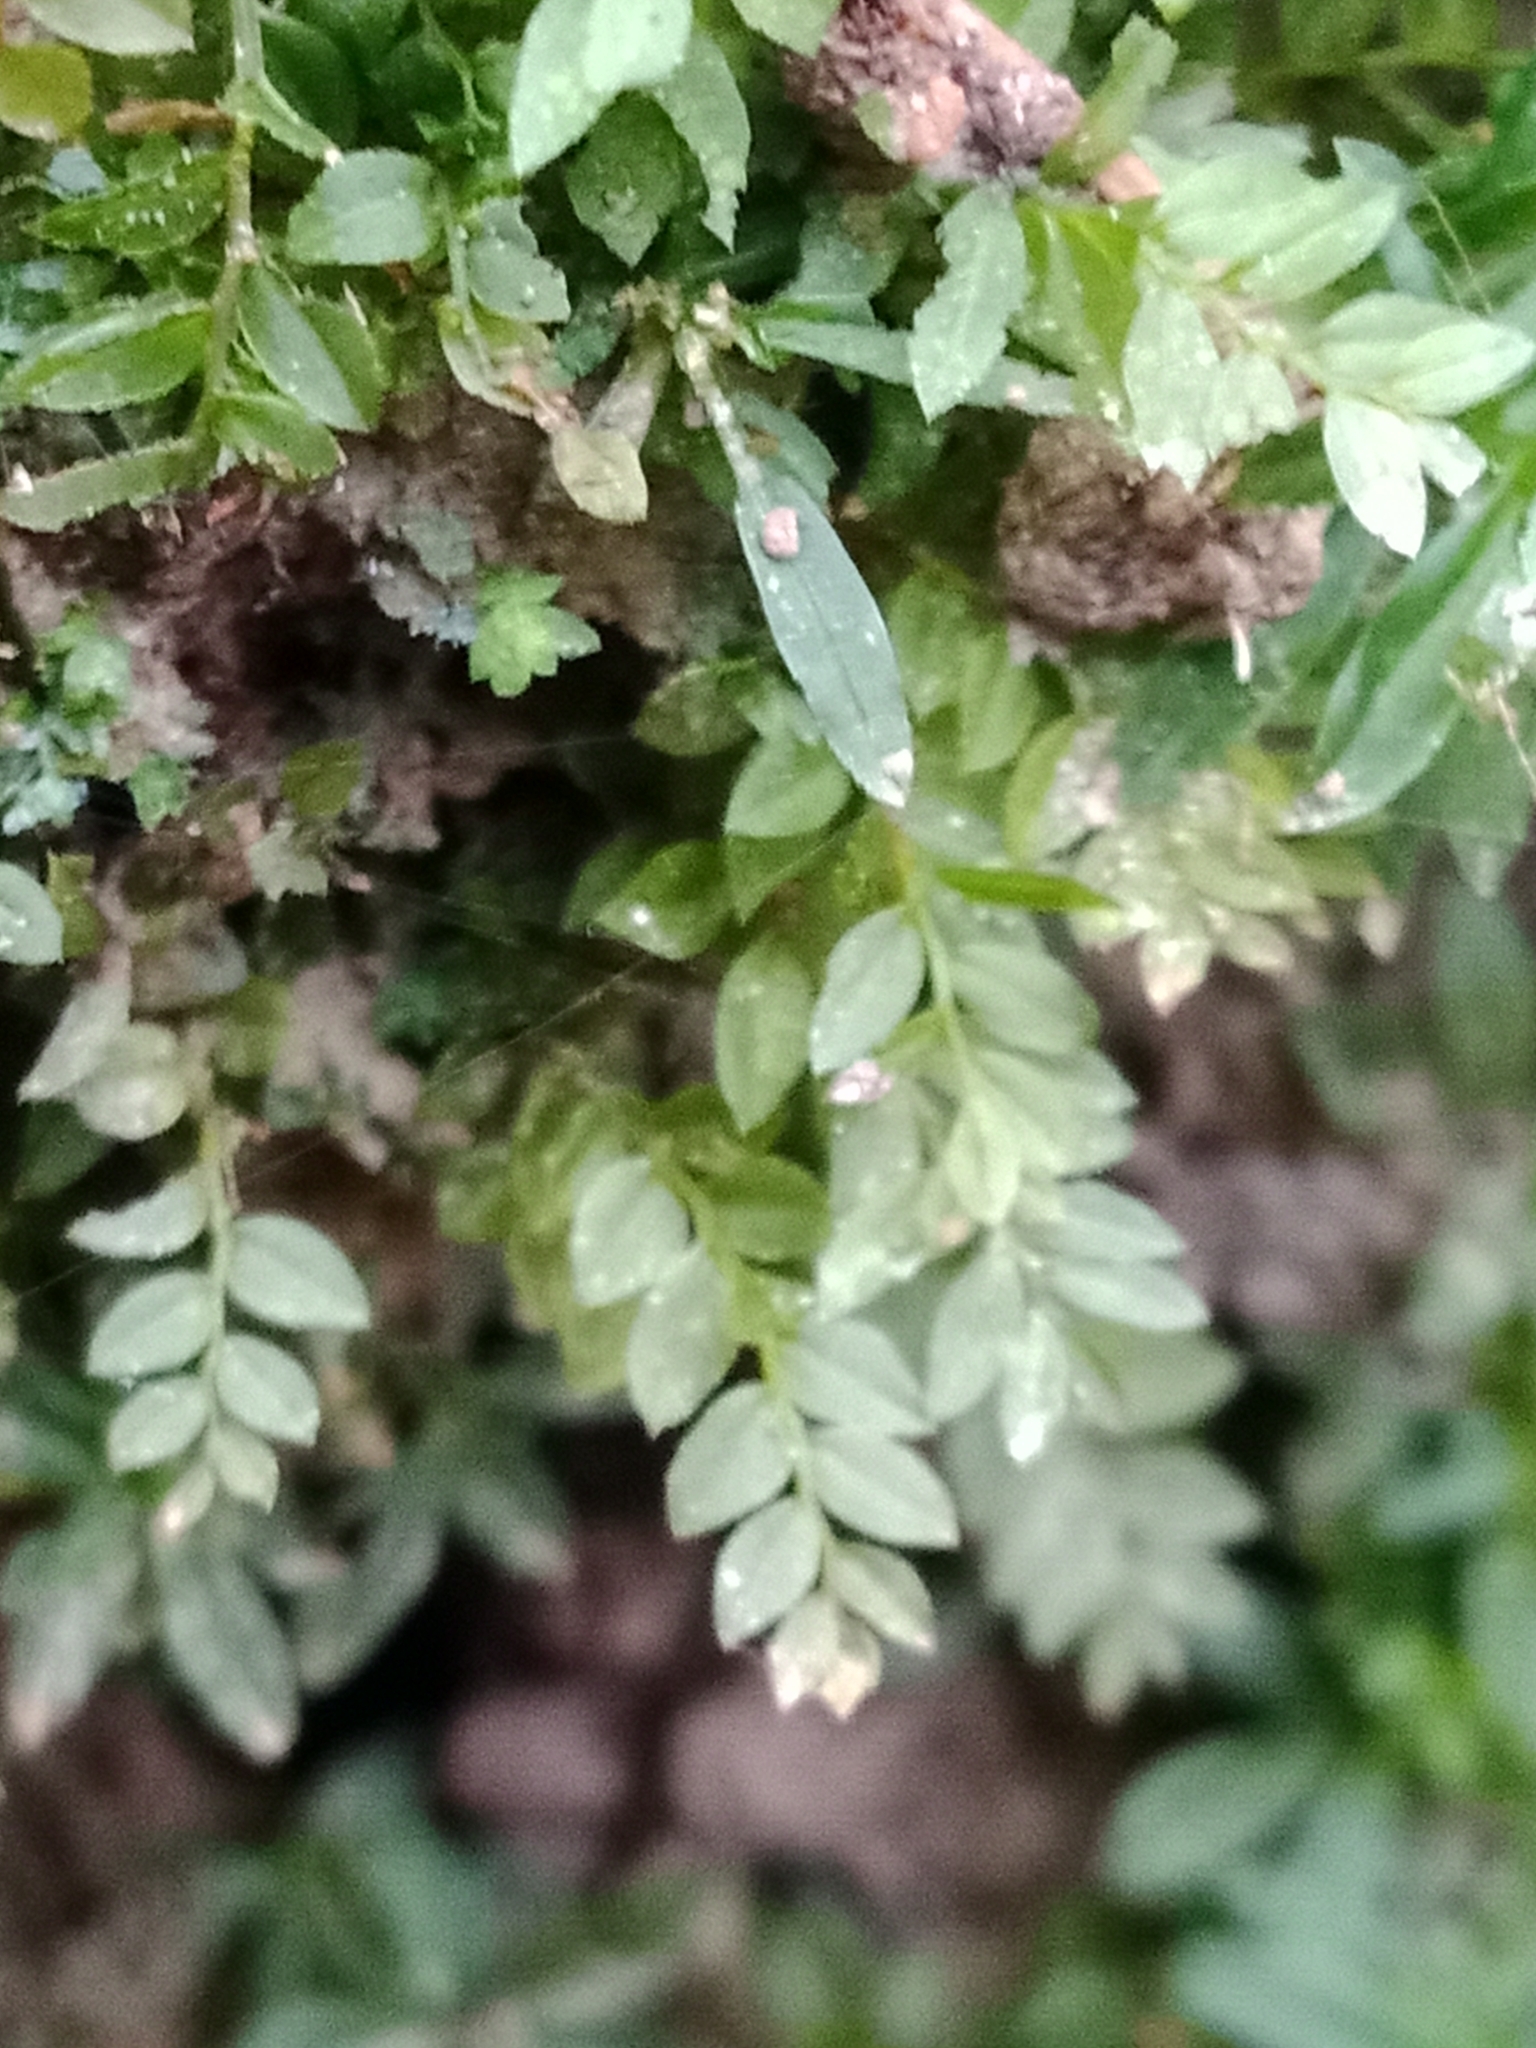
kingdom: Plantae
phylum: Bryophyta
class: Bryopsida
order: Bryales
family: Mniaceae
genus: Mnium
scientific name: Mnium stellare
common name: Star leafy moss
